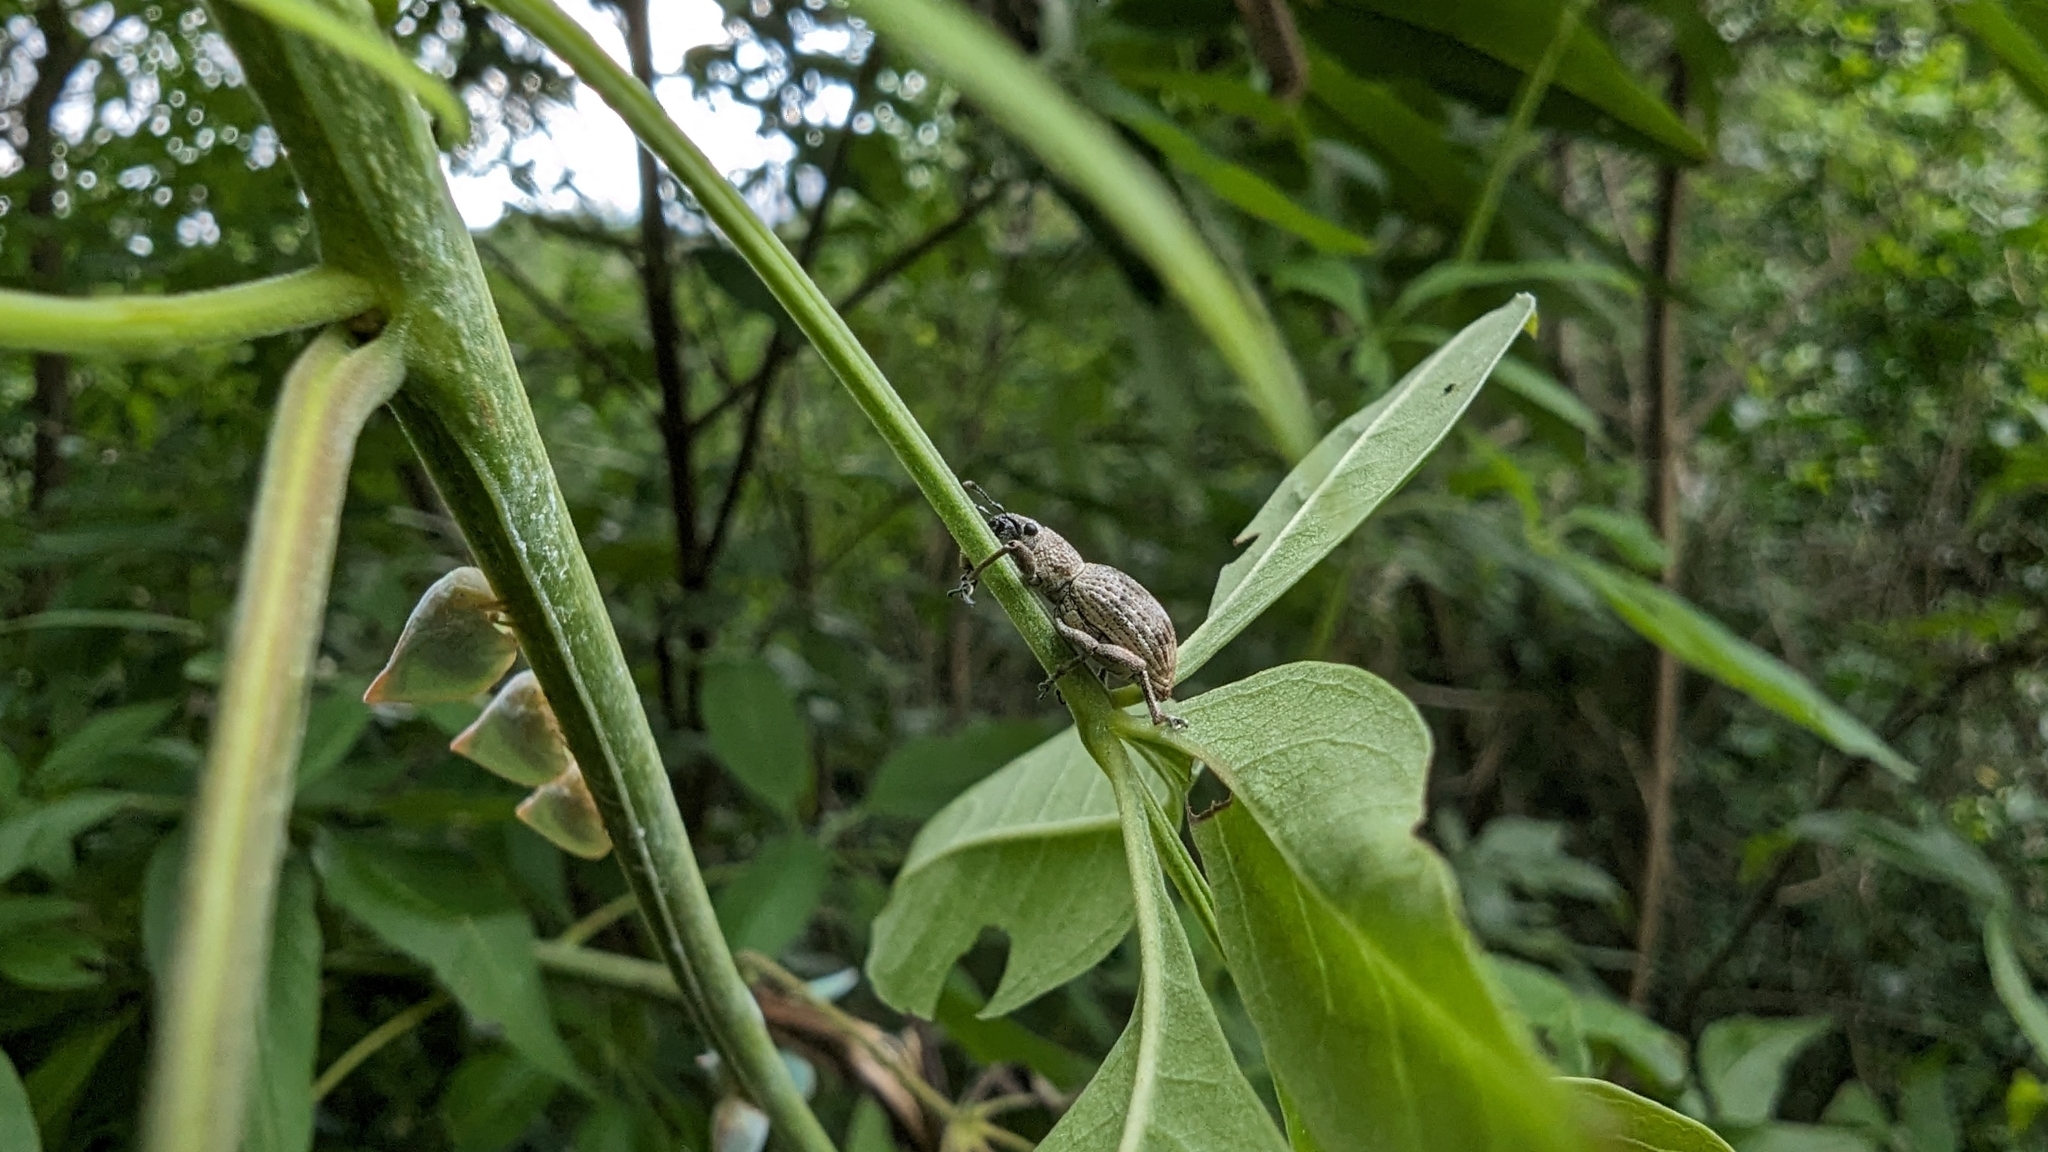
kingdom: Animalia
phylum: Arthropoda
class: Insecta
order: Coleoptera
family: Curculionidae
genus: Sympiezomias
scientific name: Sympiezomias cribricollis
